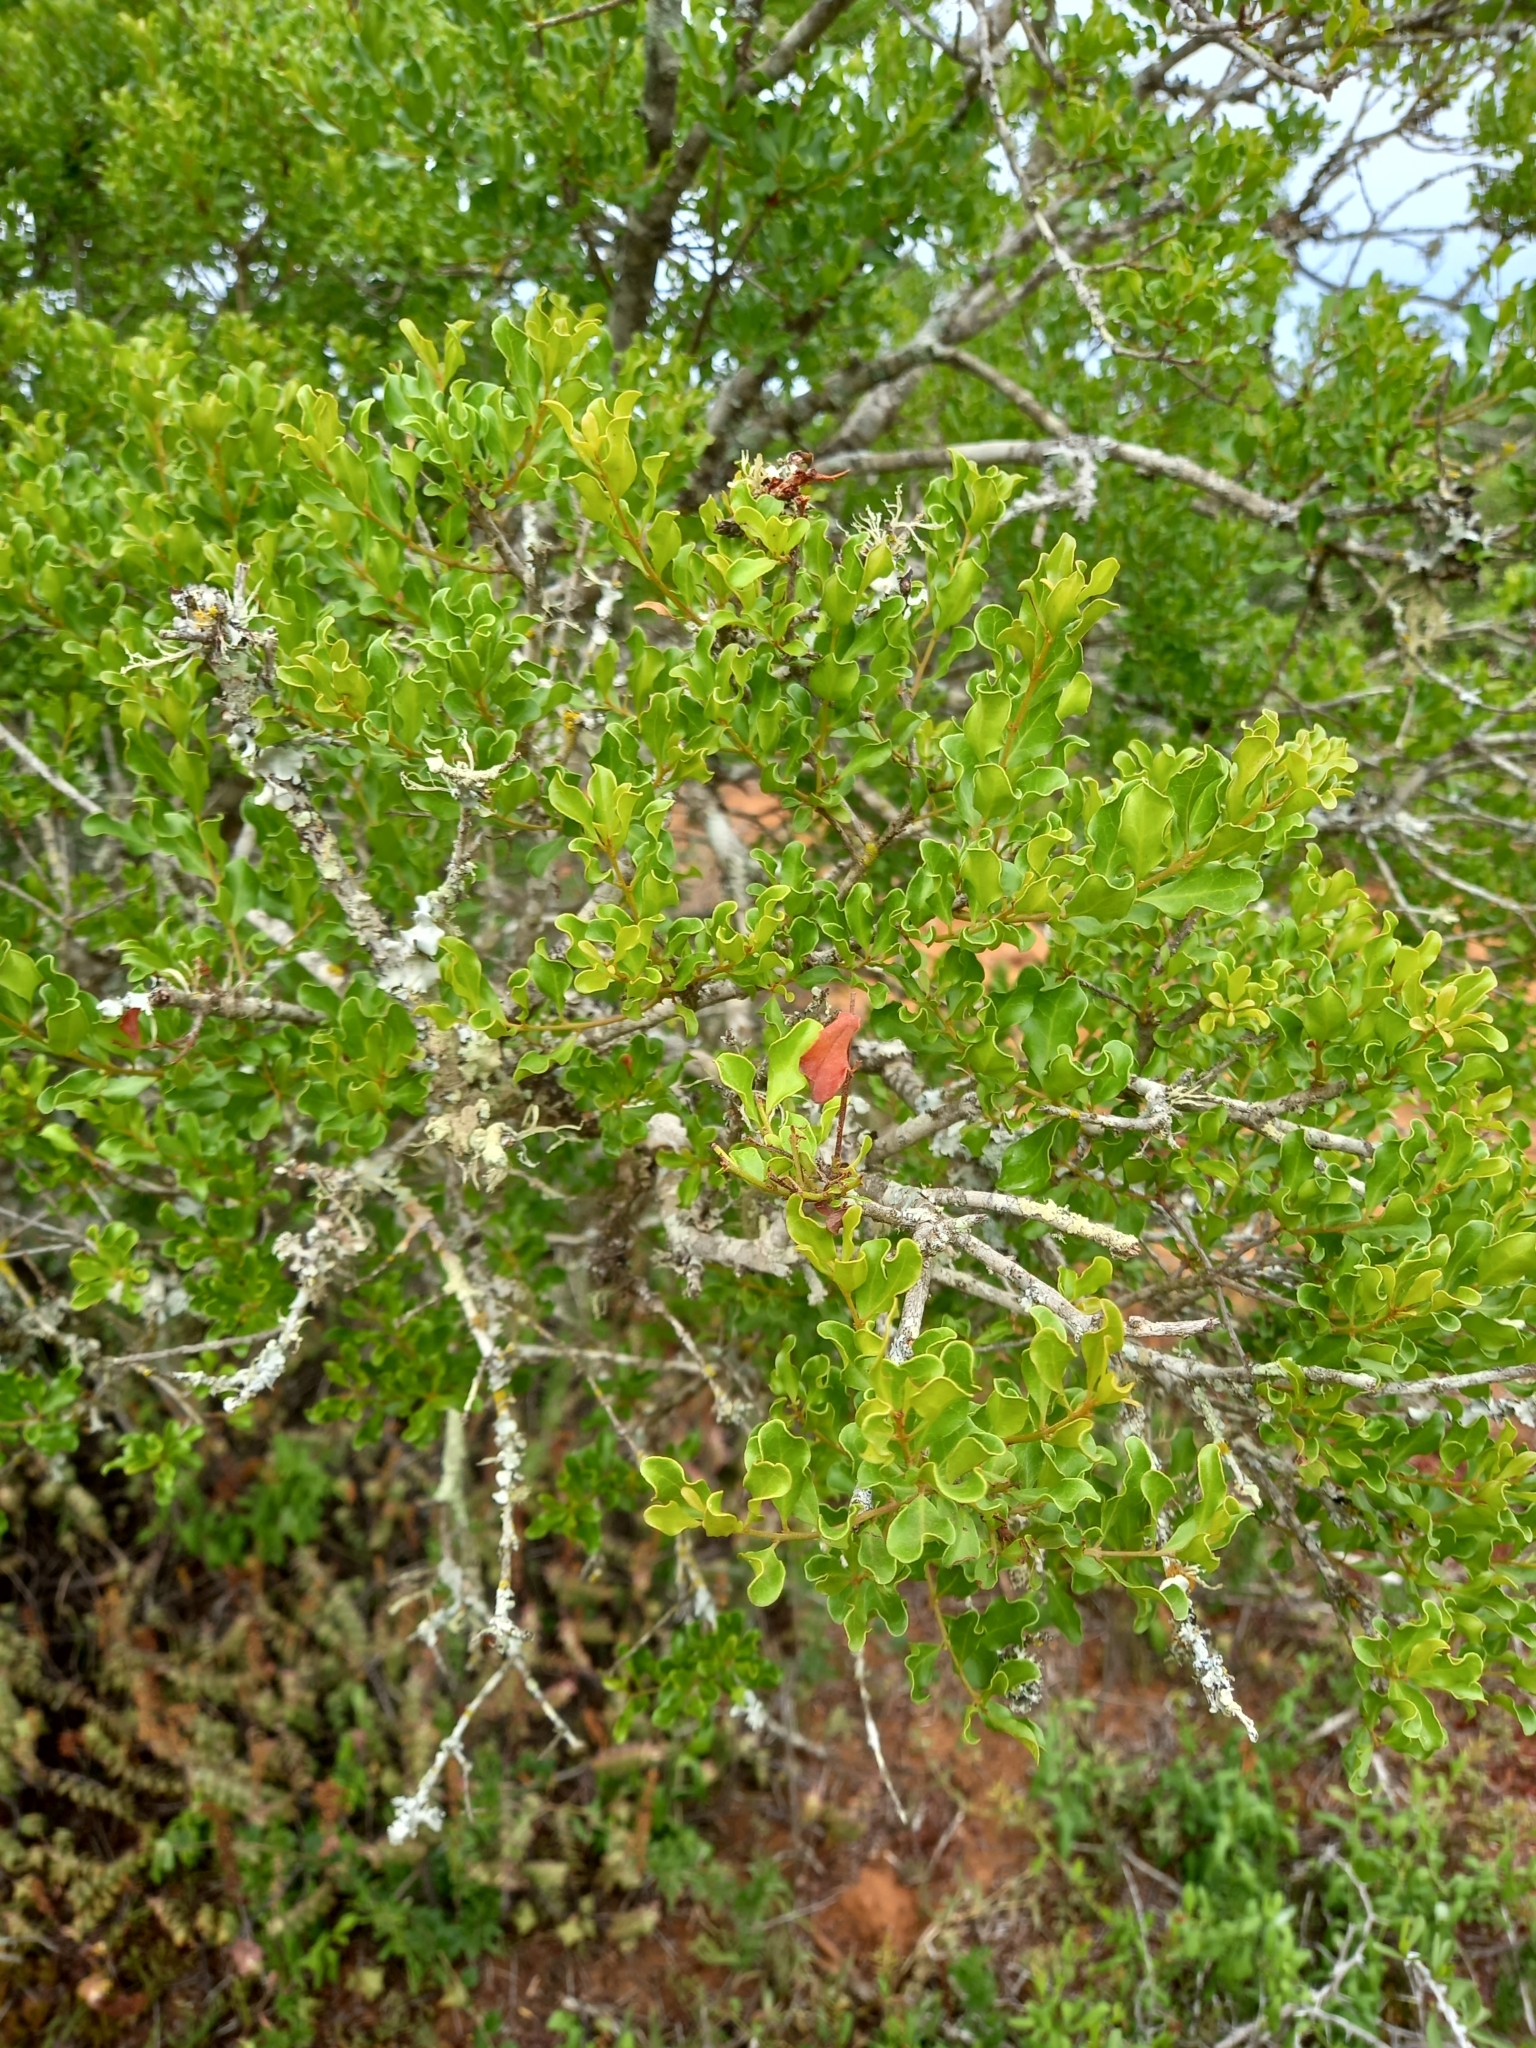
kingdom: Plantae
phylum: Tracheophyta
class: Magnoliopsida
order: Ericales
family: Ebenaceae
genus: Euclea
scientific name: Euclea undulata
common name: Small-leaved guarri
